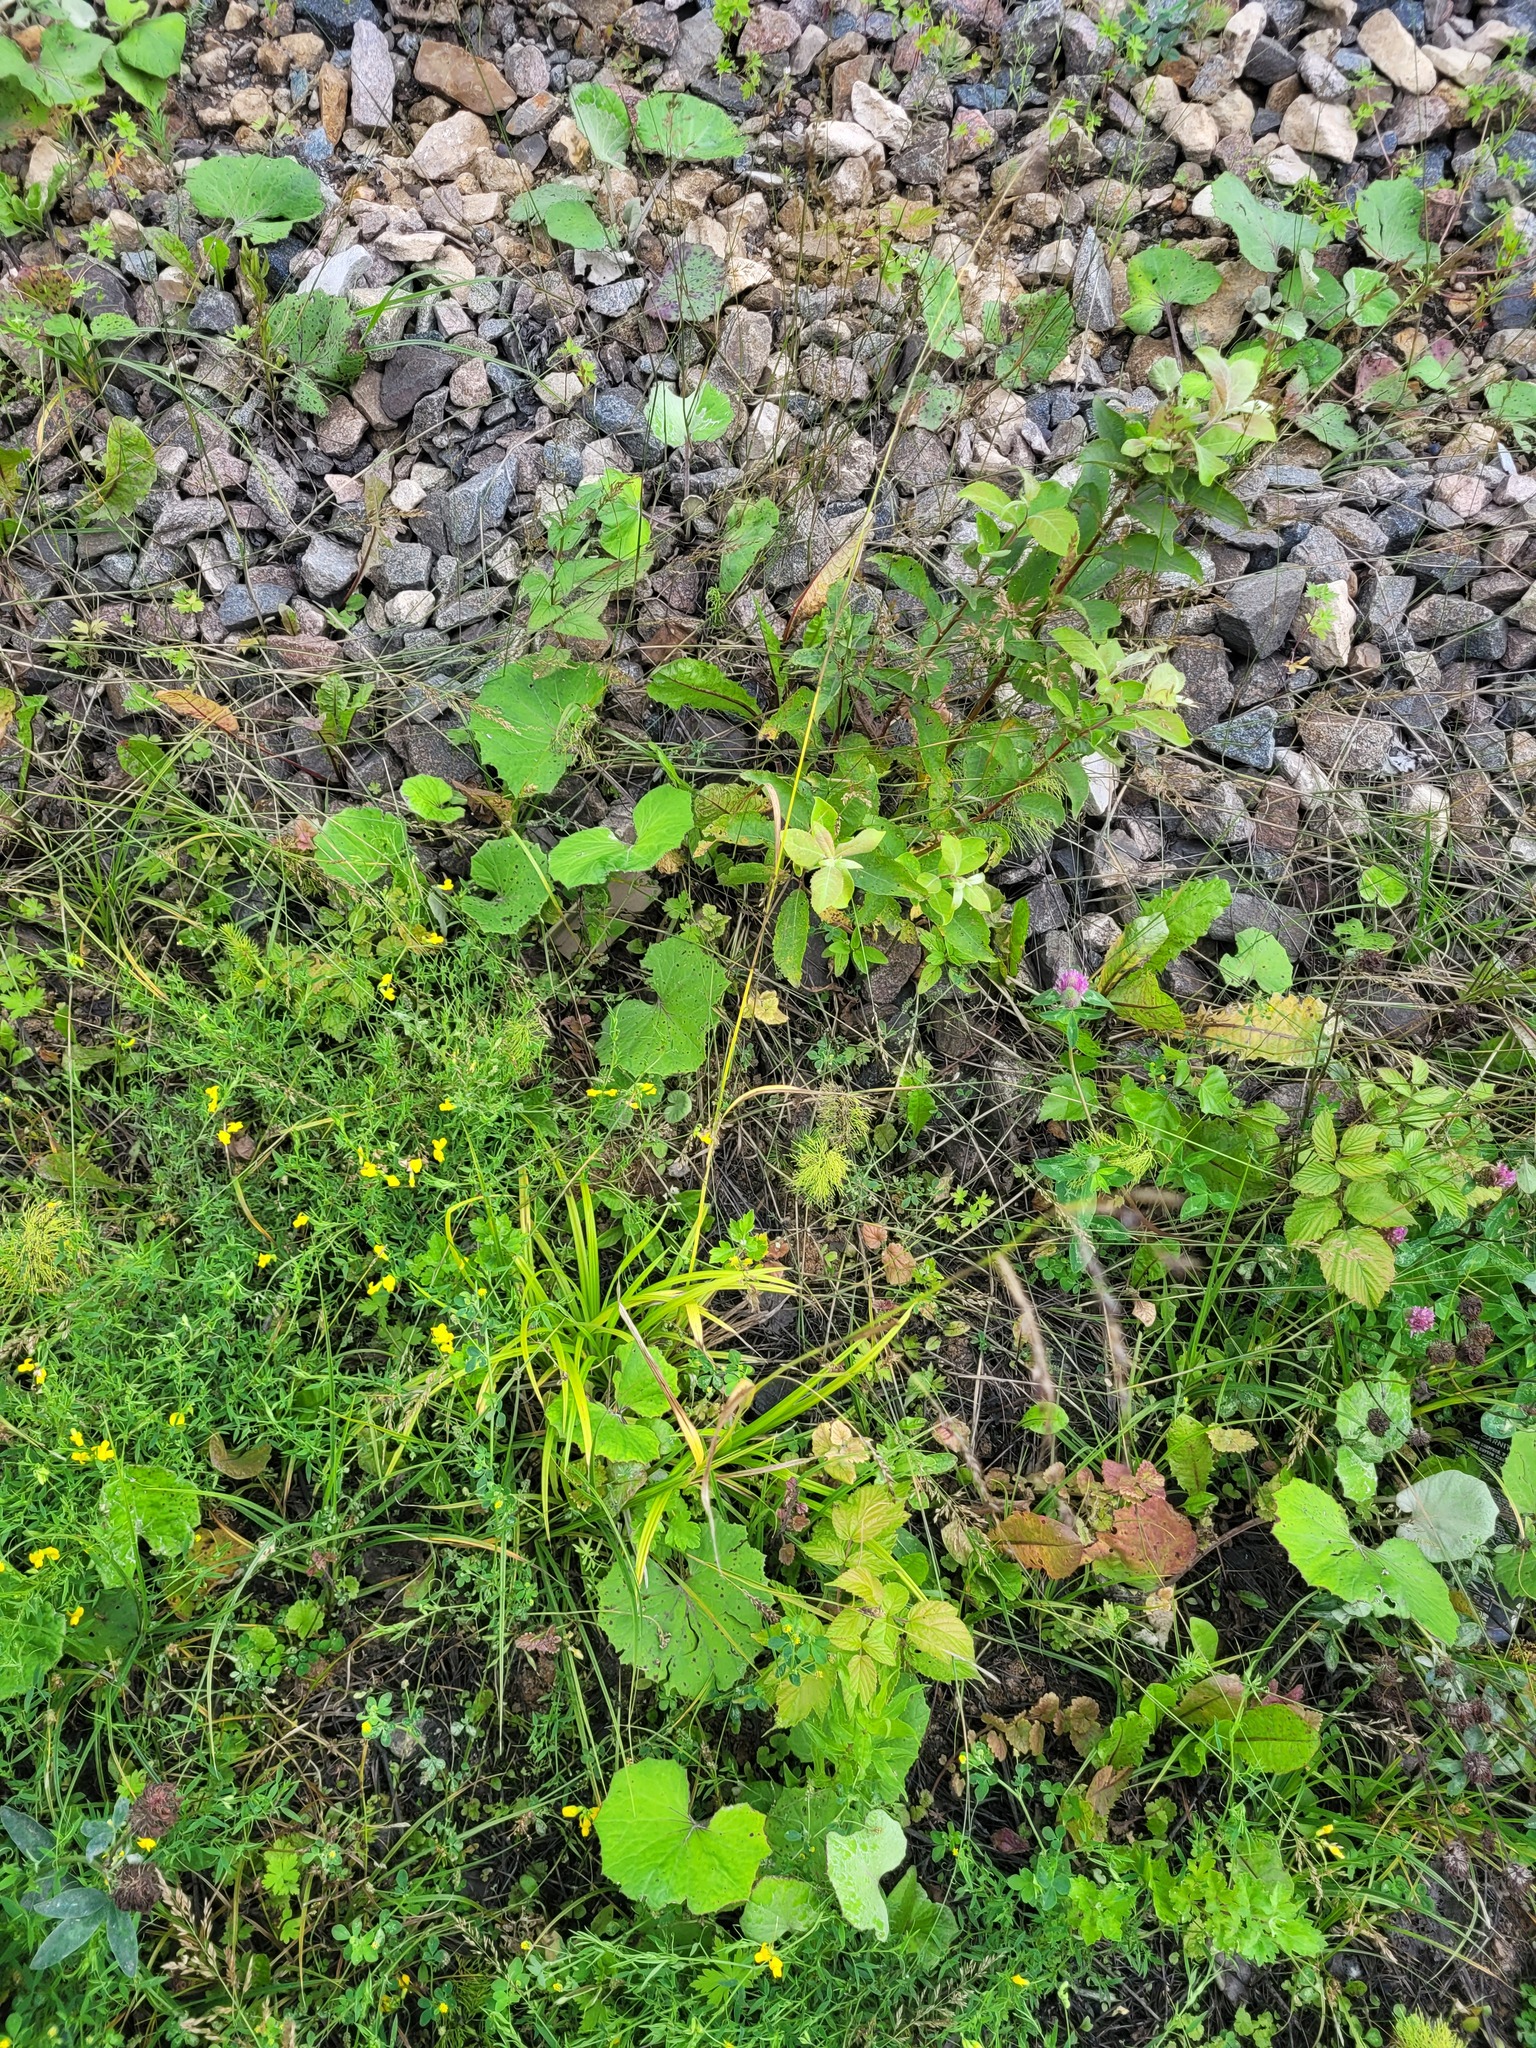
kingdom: Plantae
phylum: Tracheophyta
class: Liliopsida
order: Poales
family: Cyperaceae
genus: Carex
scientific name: Carex sylvatica
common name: Wood-sedge
